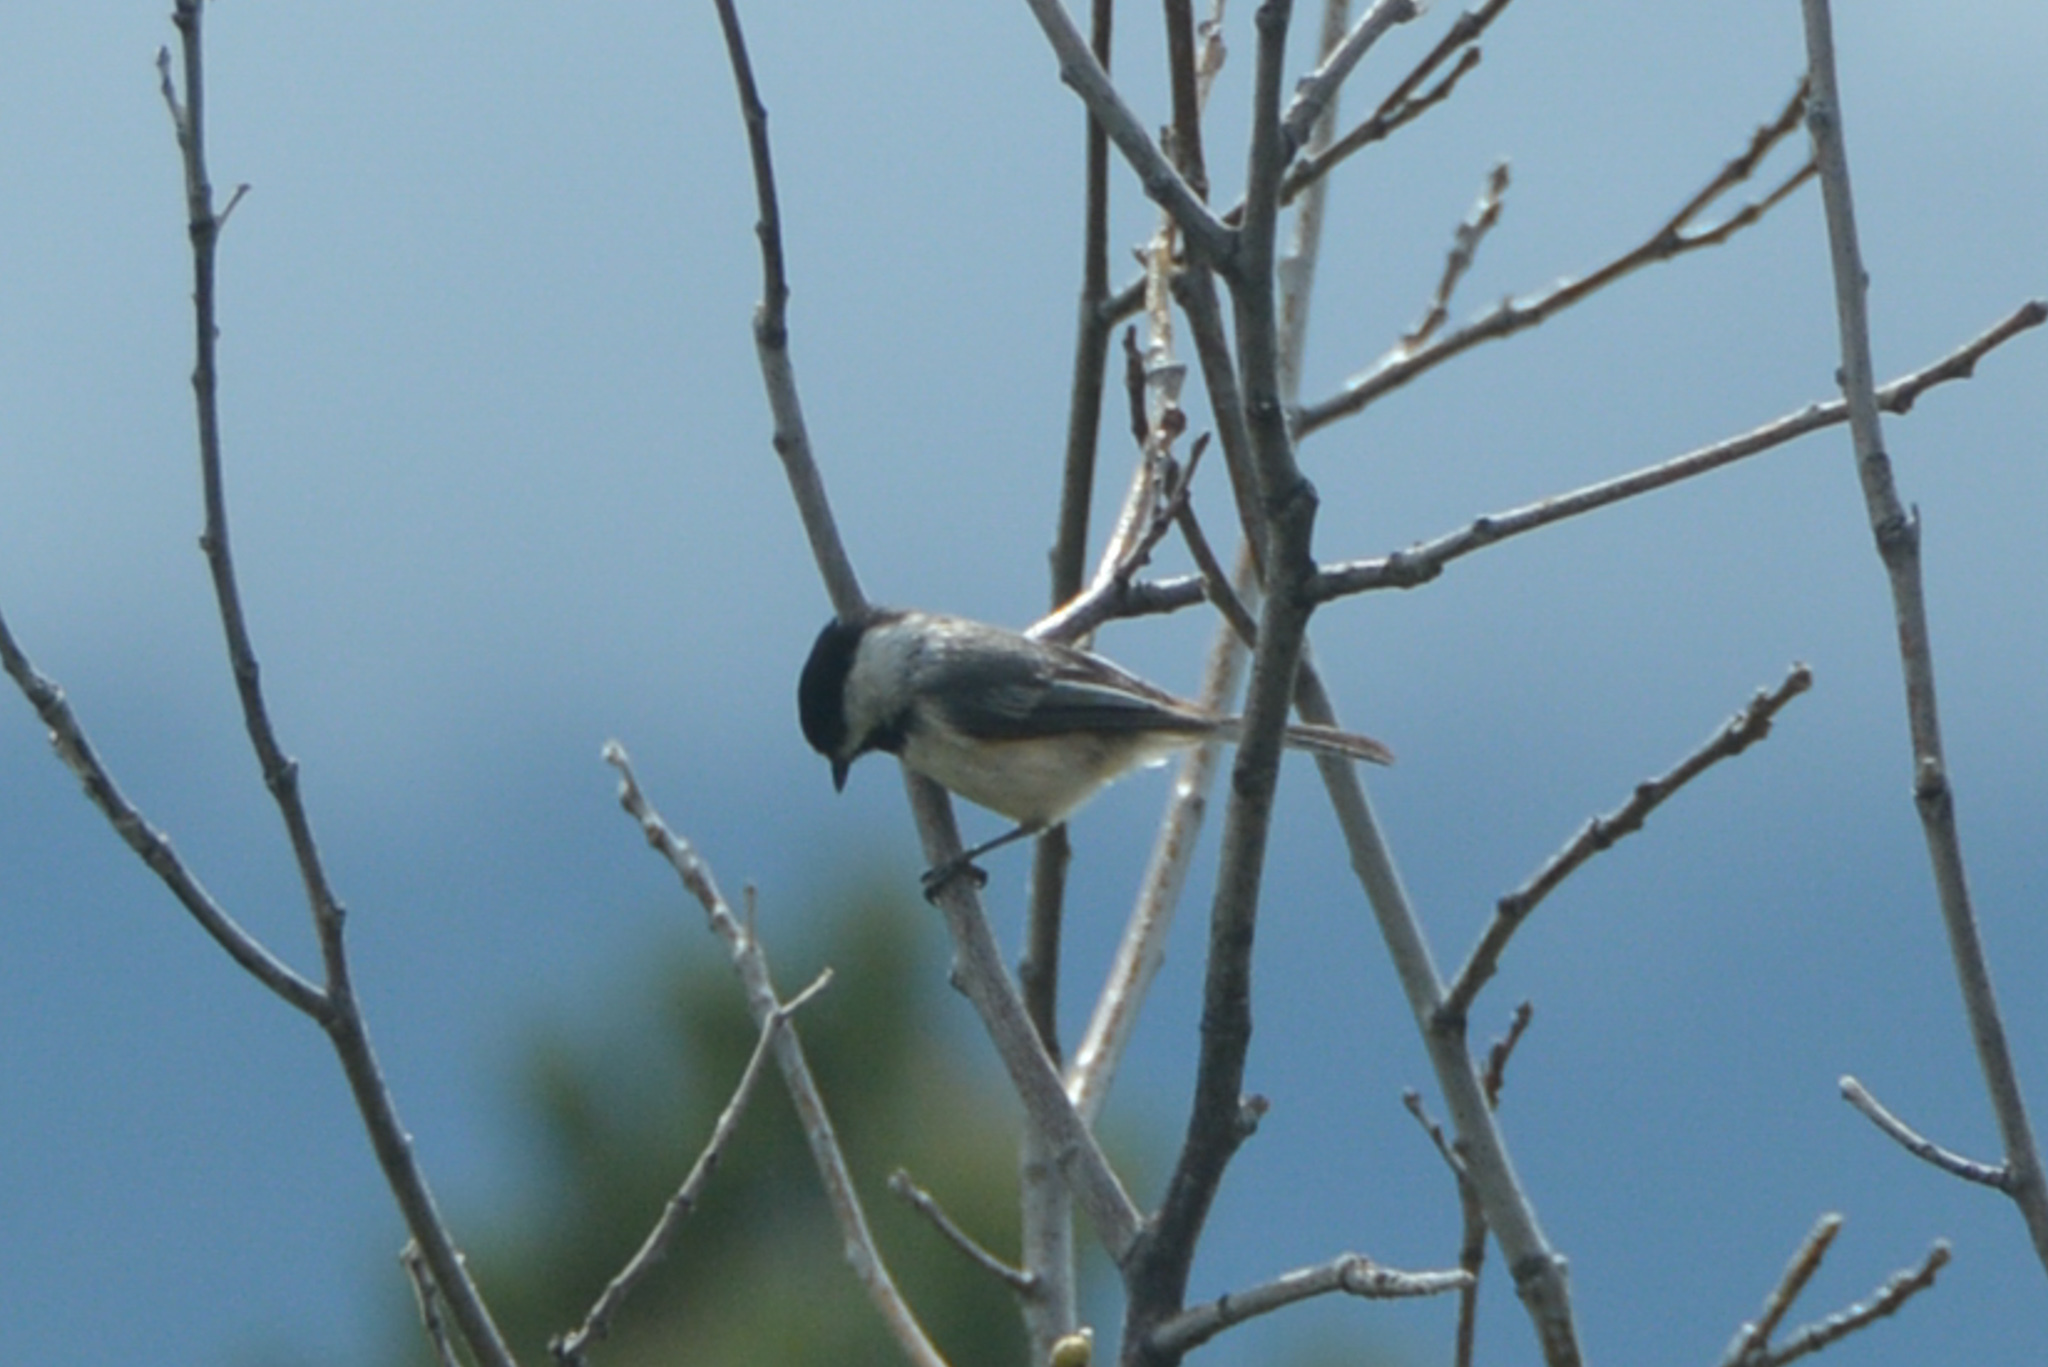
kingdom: Animalia
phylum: Chordata
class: Aves
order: Passeriformes
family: Paridae
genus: Poecile
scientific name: Poecile atricapillus
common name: Black-capped chickadee
